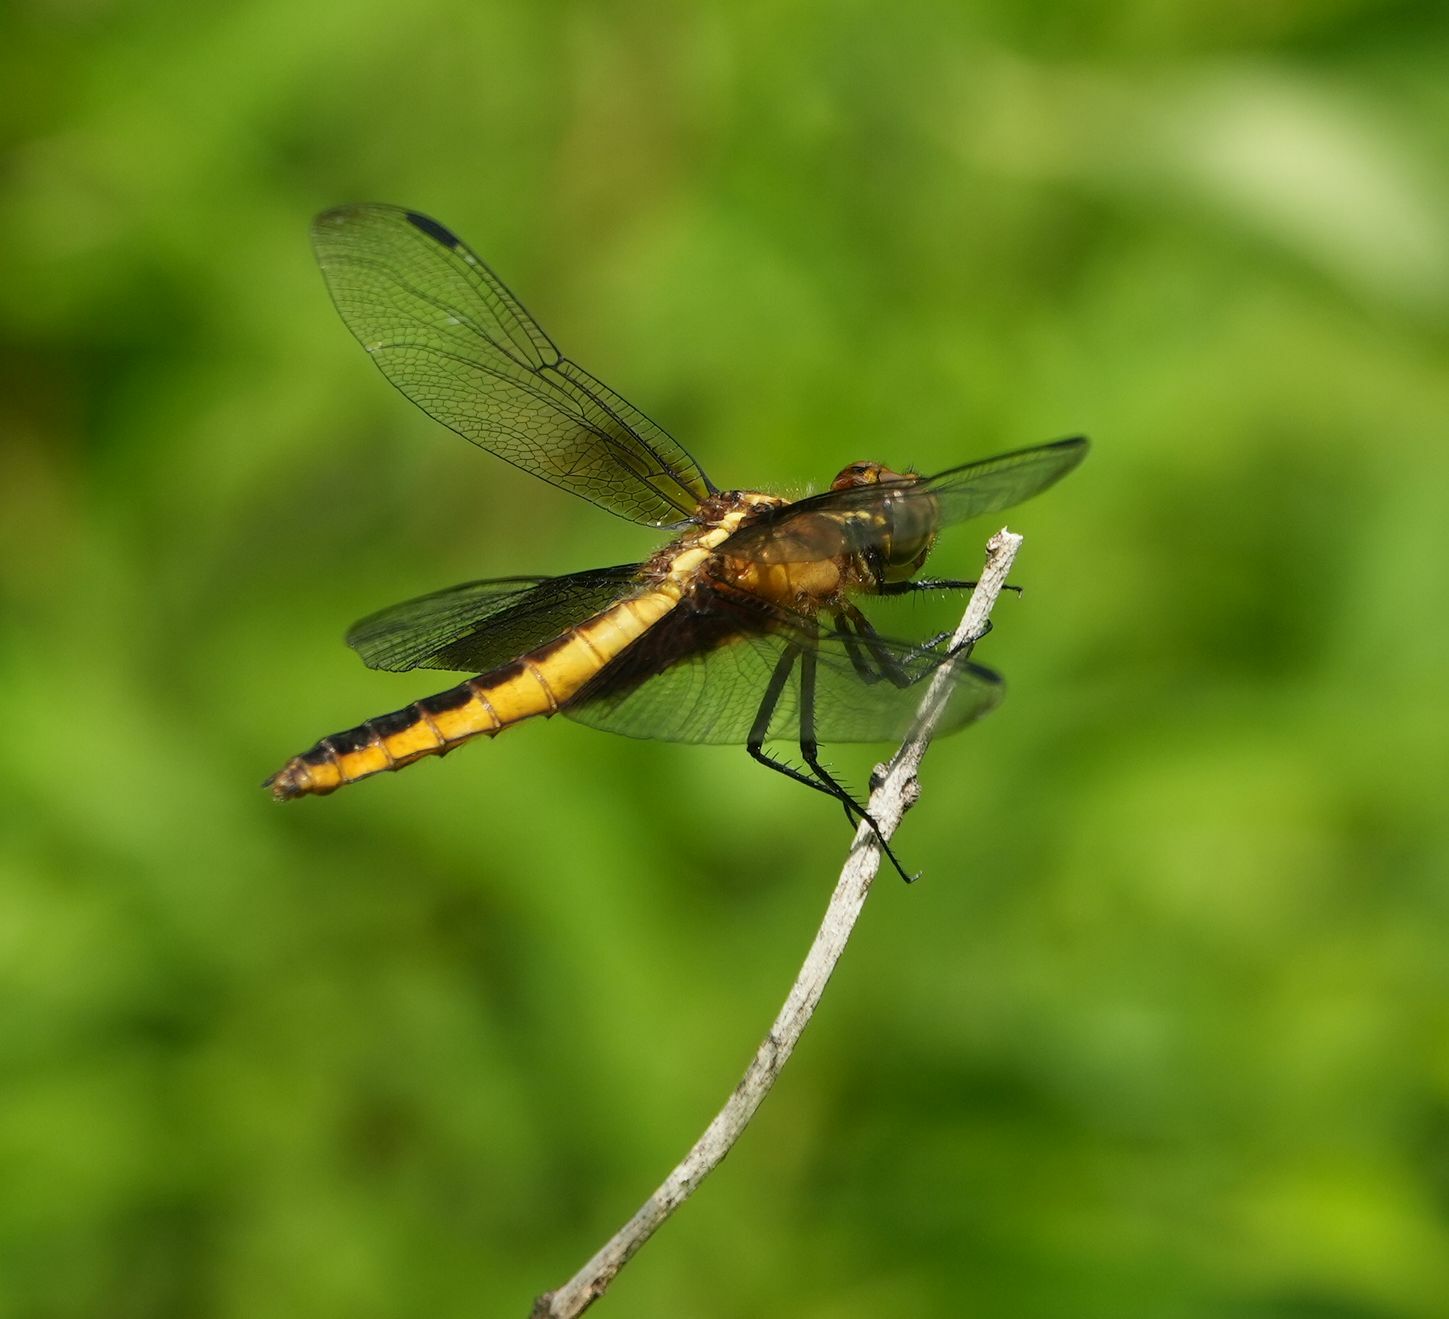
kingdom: Animalia
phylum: Arthropoda
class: Insecta
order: Odonata
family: Libellulidae
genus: Libellula
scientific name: Libellula luctuosa
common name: Widow skimmer
